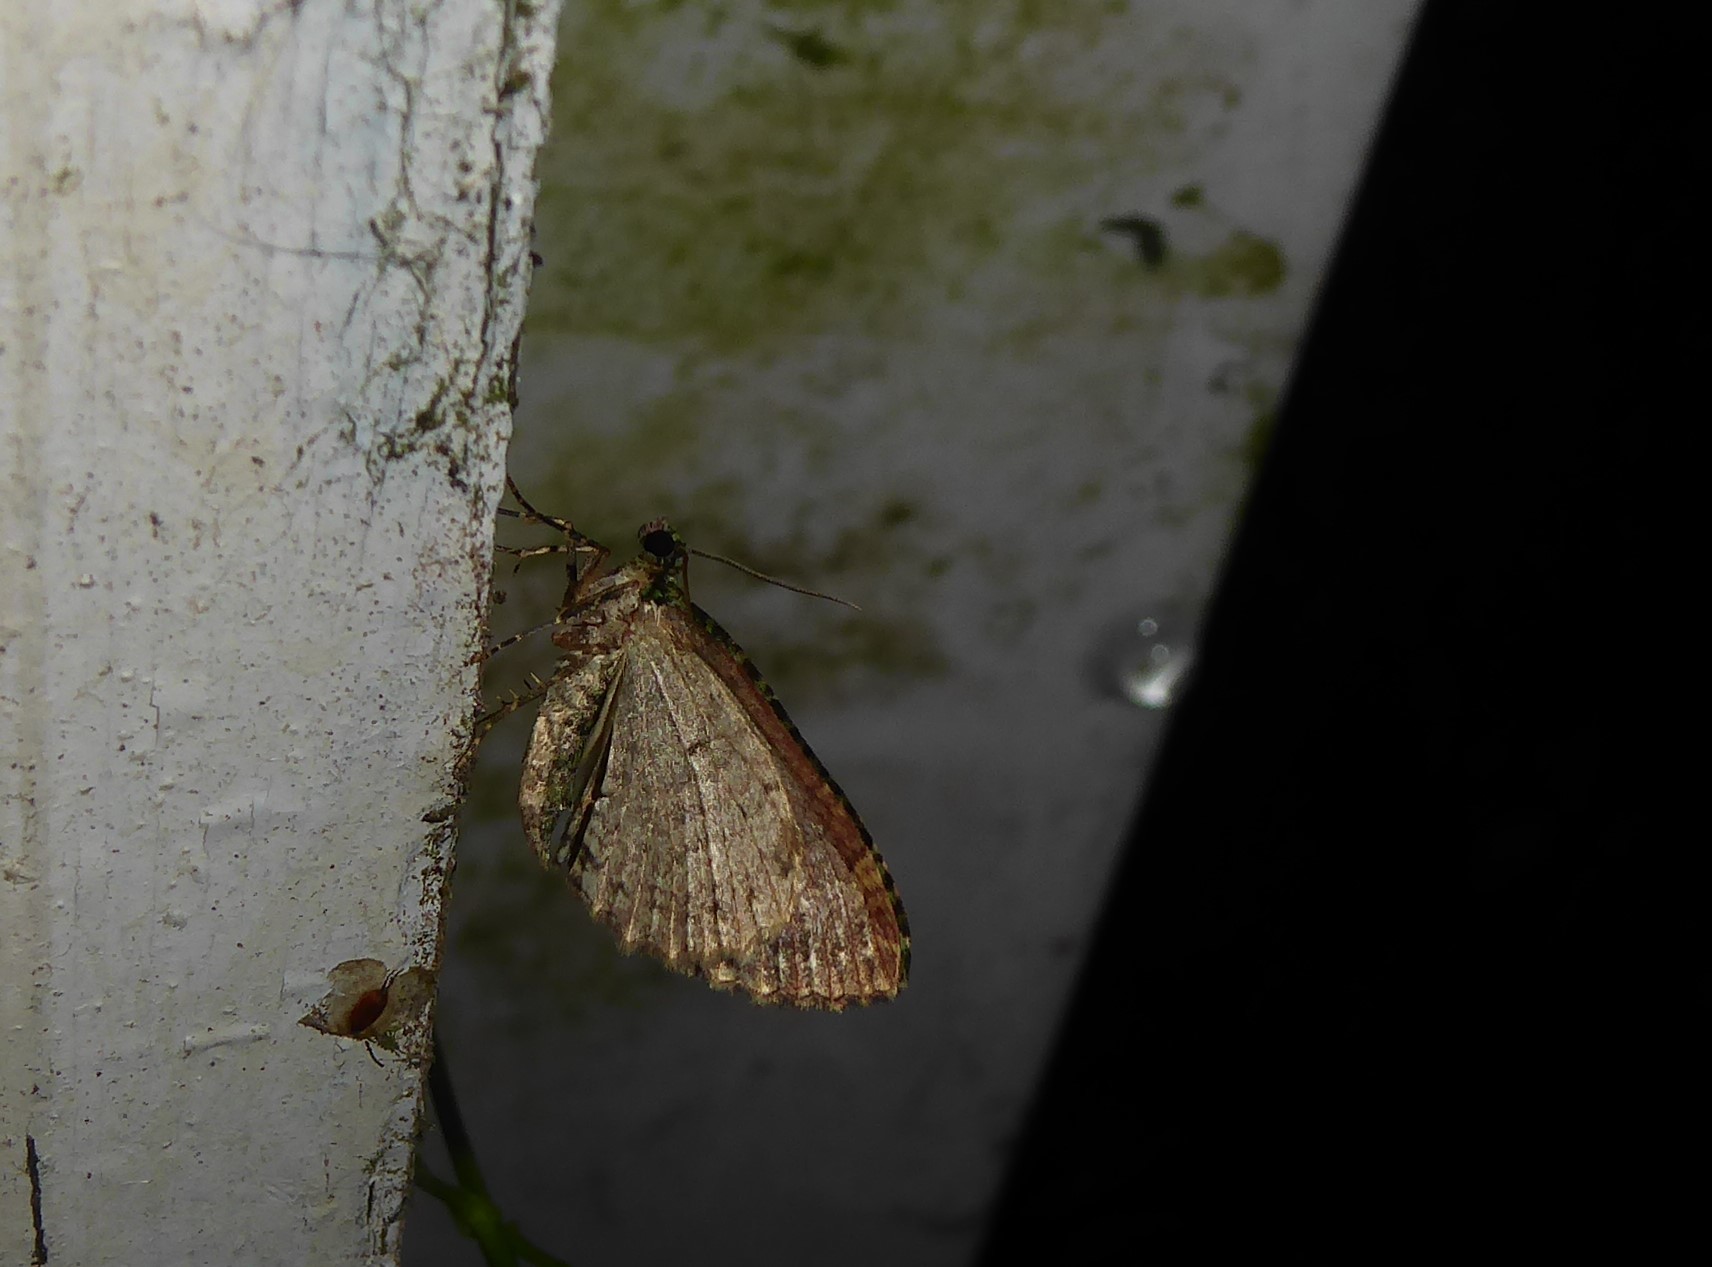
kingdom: Animalia
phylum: Arthropoda
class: Insecta
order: Lepidoptera
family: Geometridae
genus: Austrocidaria
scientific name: Austrocidaria similata
